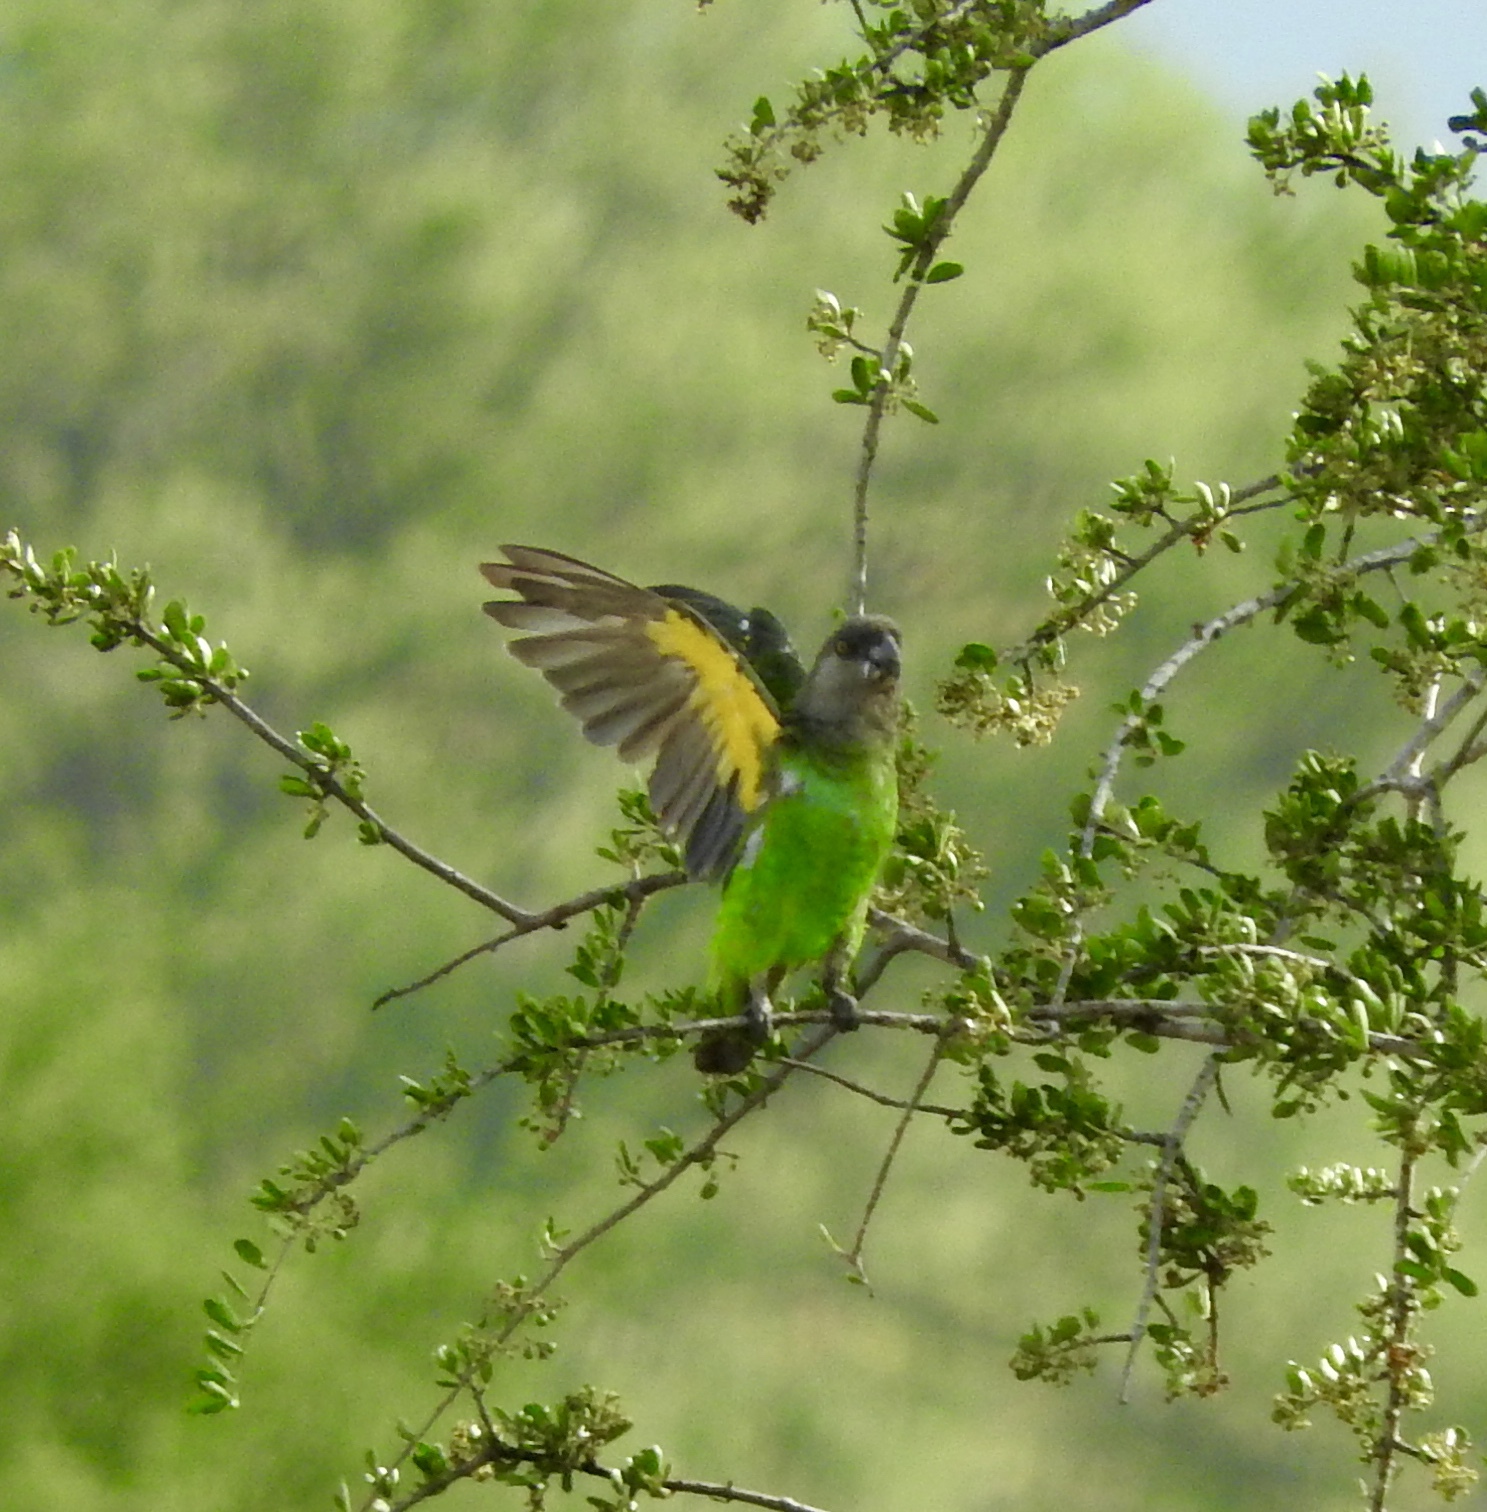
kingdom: Animalia
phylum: Chordata
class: Aves
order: Psittaciformes
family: Psittacidae
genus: Poicephalus
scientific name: Poicephalus cryptoxanthus
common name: Brown-headed parrot
